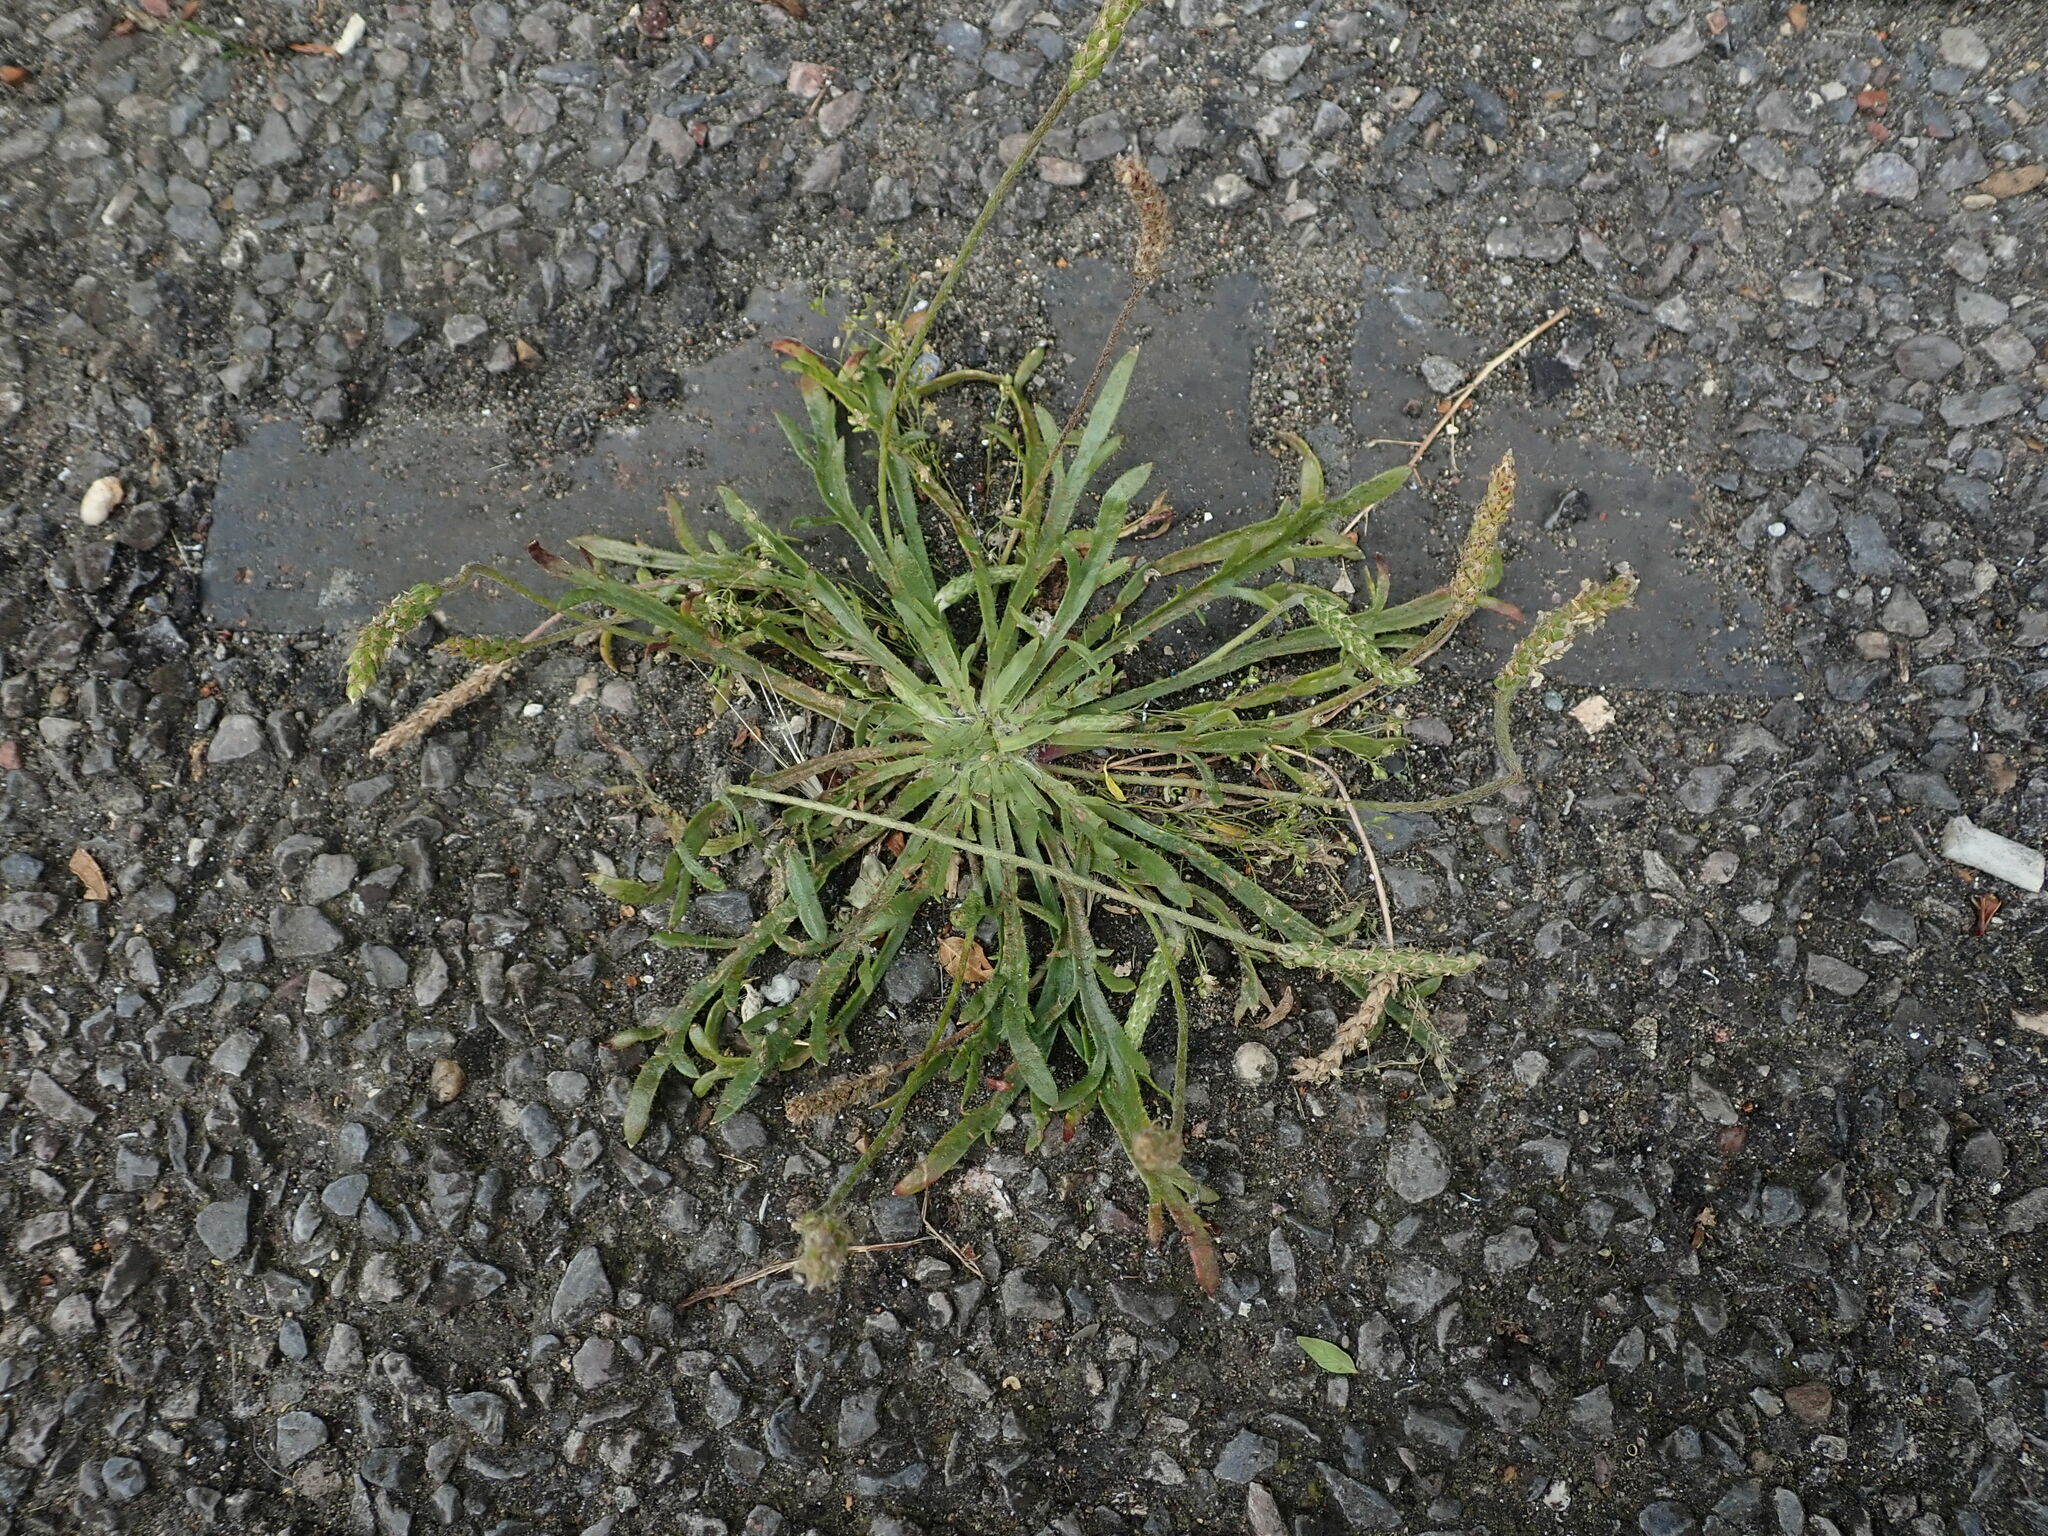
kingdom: Plantae
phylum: Tracheophyta
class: Magnoliopsida
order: Lamiales
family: Plantaginaceae
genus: Plantago
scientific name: Plantago coronopus
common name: Buck's-horn plantain
